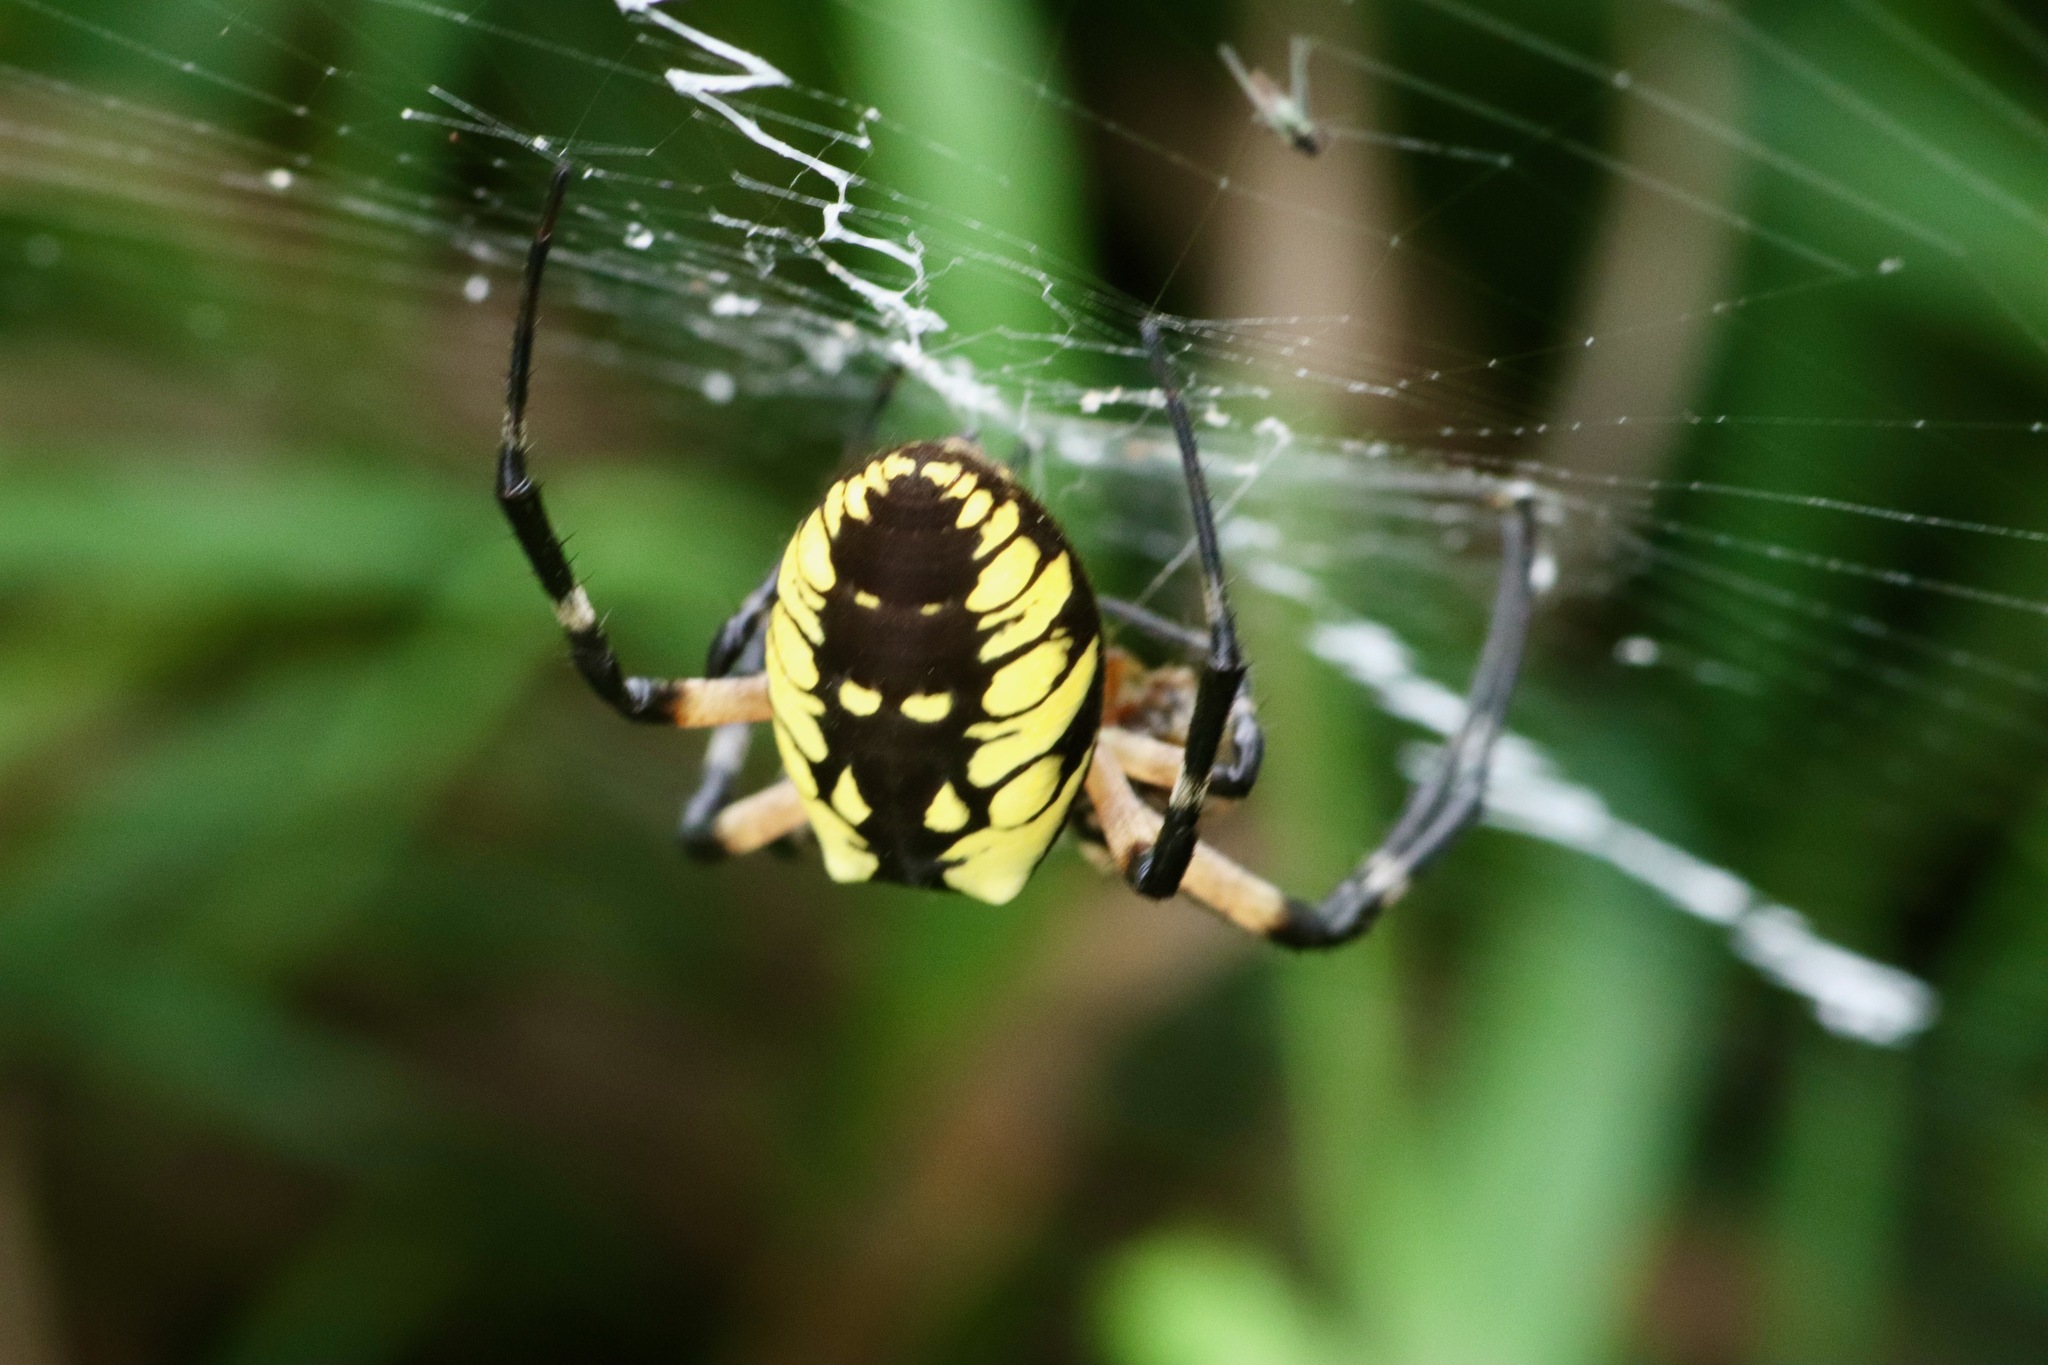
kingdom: Animalia
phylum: Arthropoda
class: Arachnida
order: Araneae
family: Araneidae
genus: Argiope
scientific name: Argiope aurantia
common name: Orb weavers
